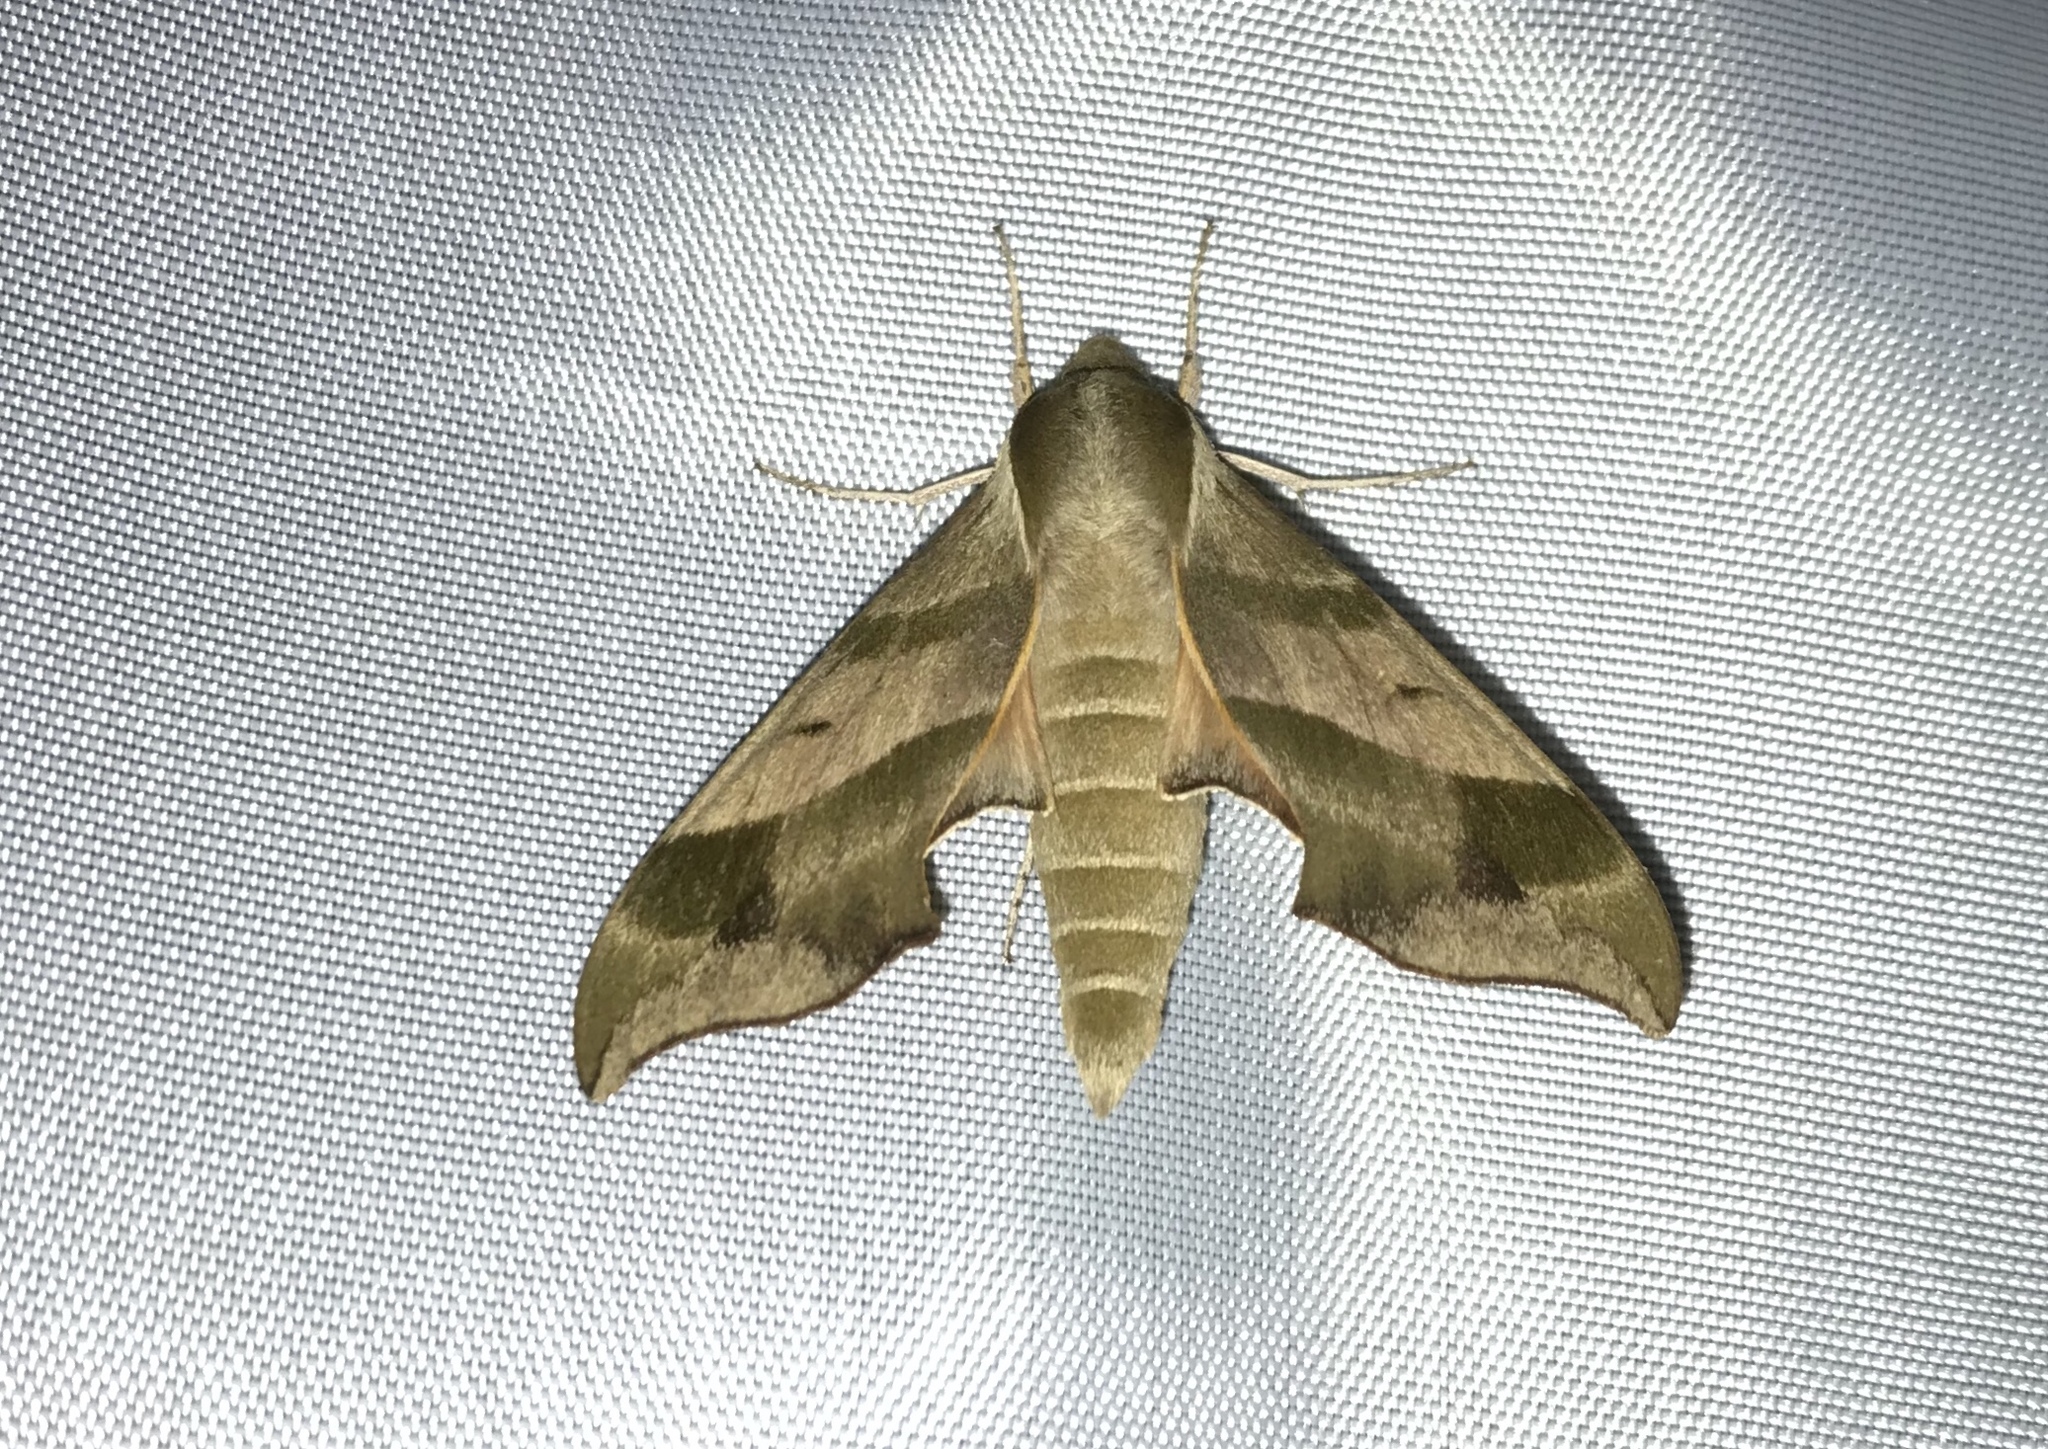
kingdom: Animalia
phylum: Arthropoda
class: Insecta
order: Lepidoptera
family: Sphingidae
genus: Darapsa
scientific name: Darapsa myron
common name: Hog sphinx
